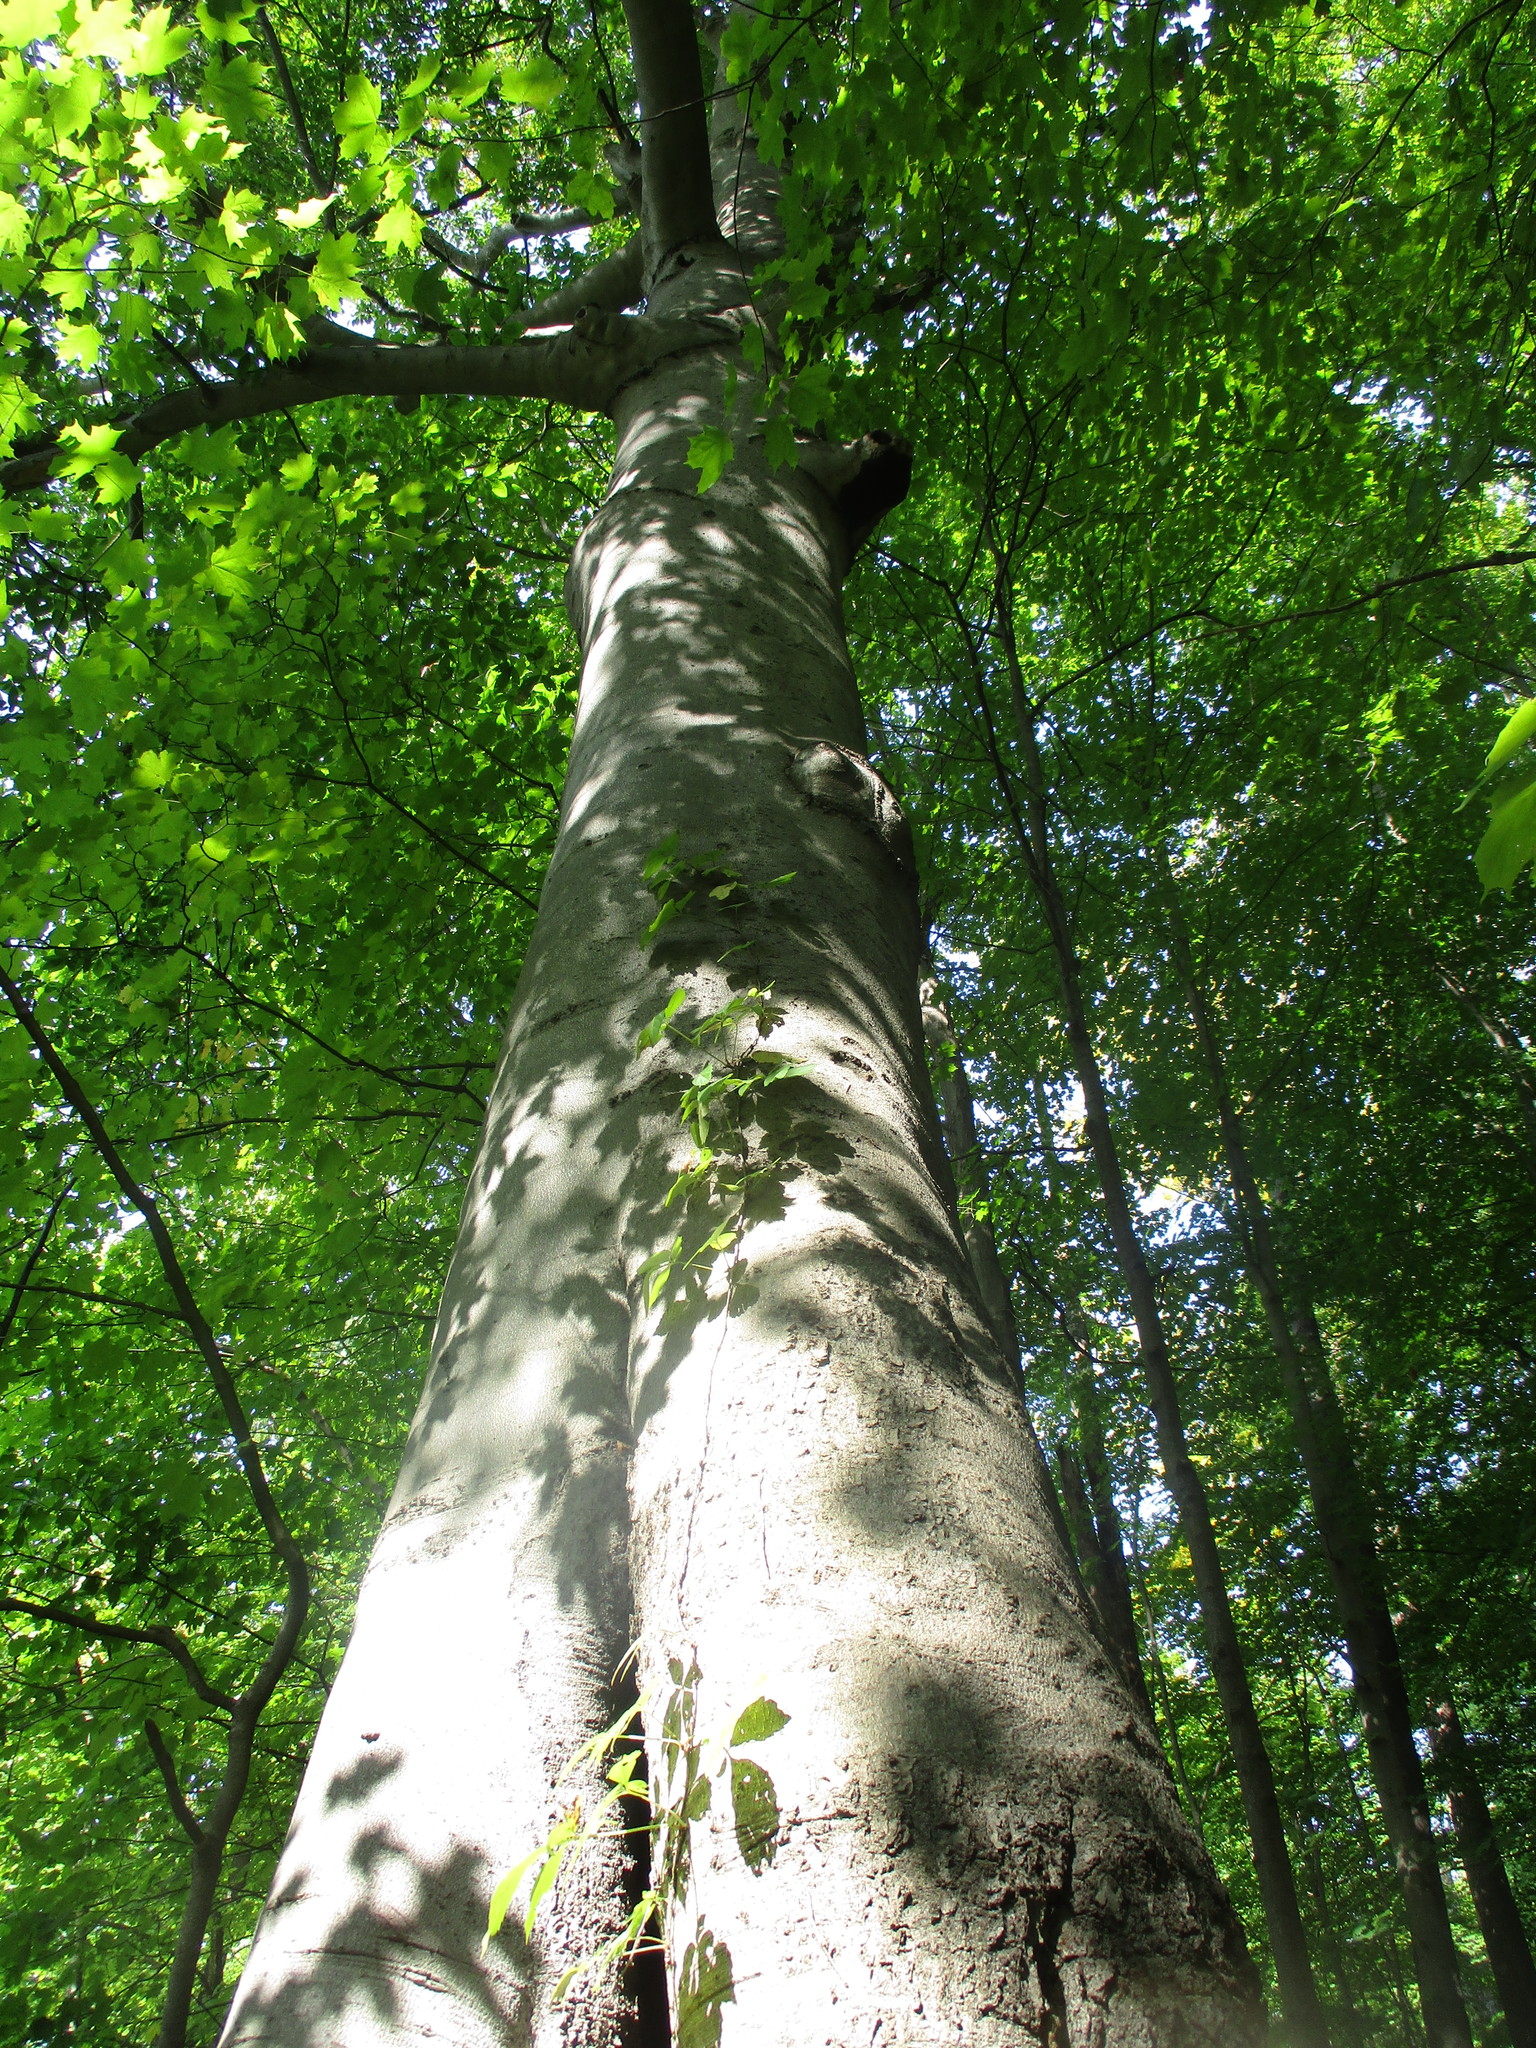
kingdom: Plantae
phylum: Tracheophyta
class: Magnoliopsida
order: Fagales
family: Fagaceae
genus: Fagus
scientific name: Fagus grandifolia
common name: American beech
